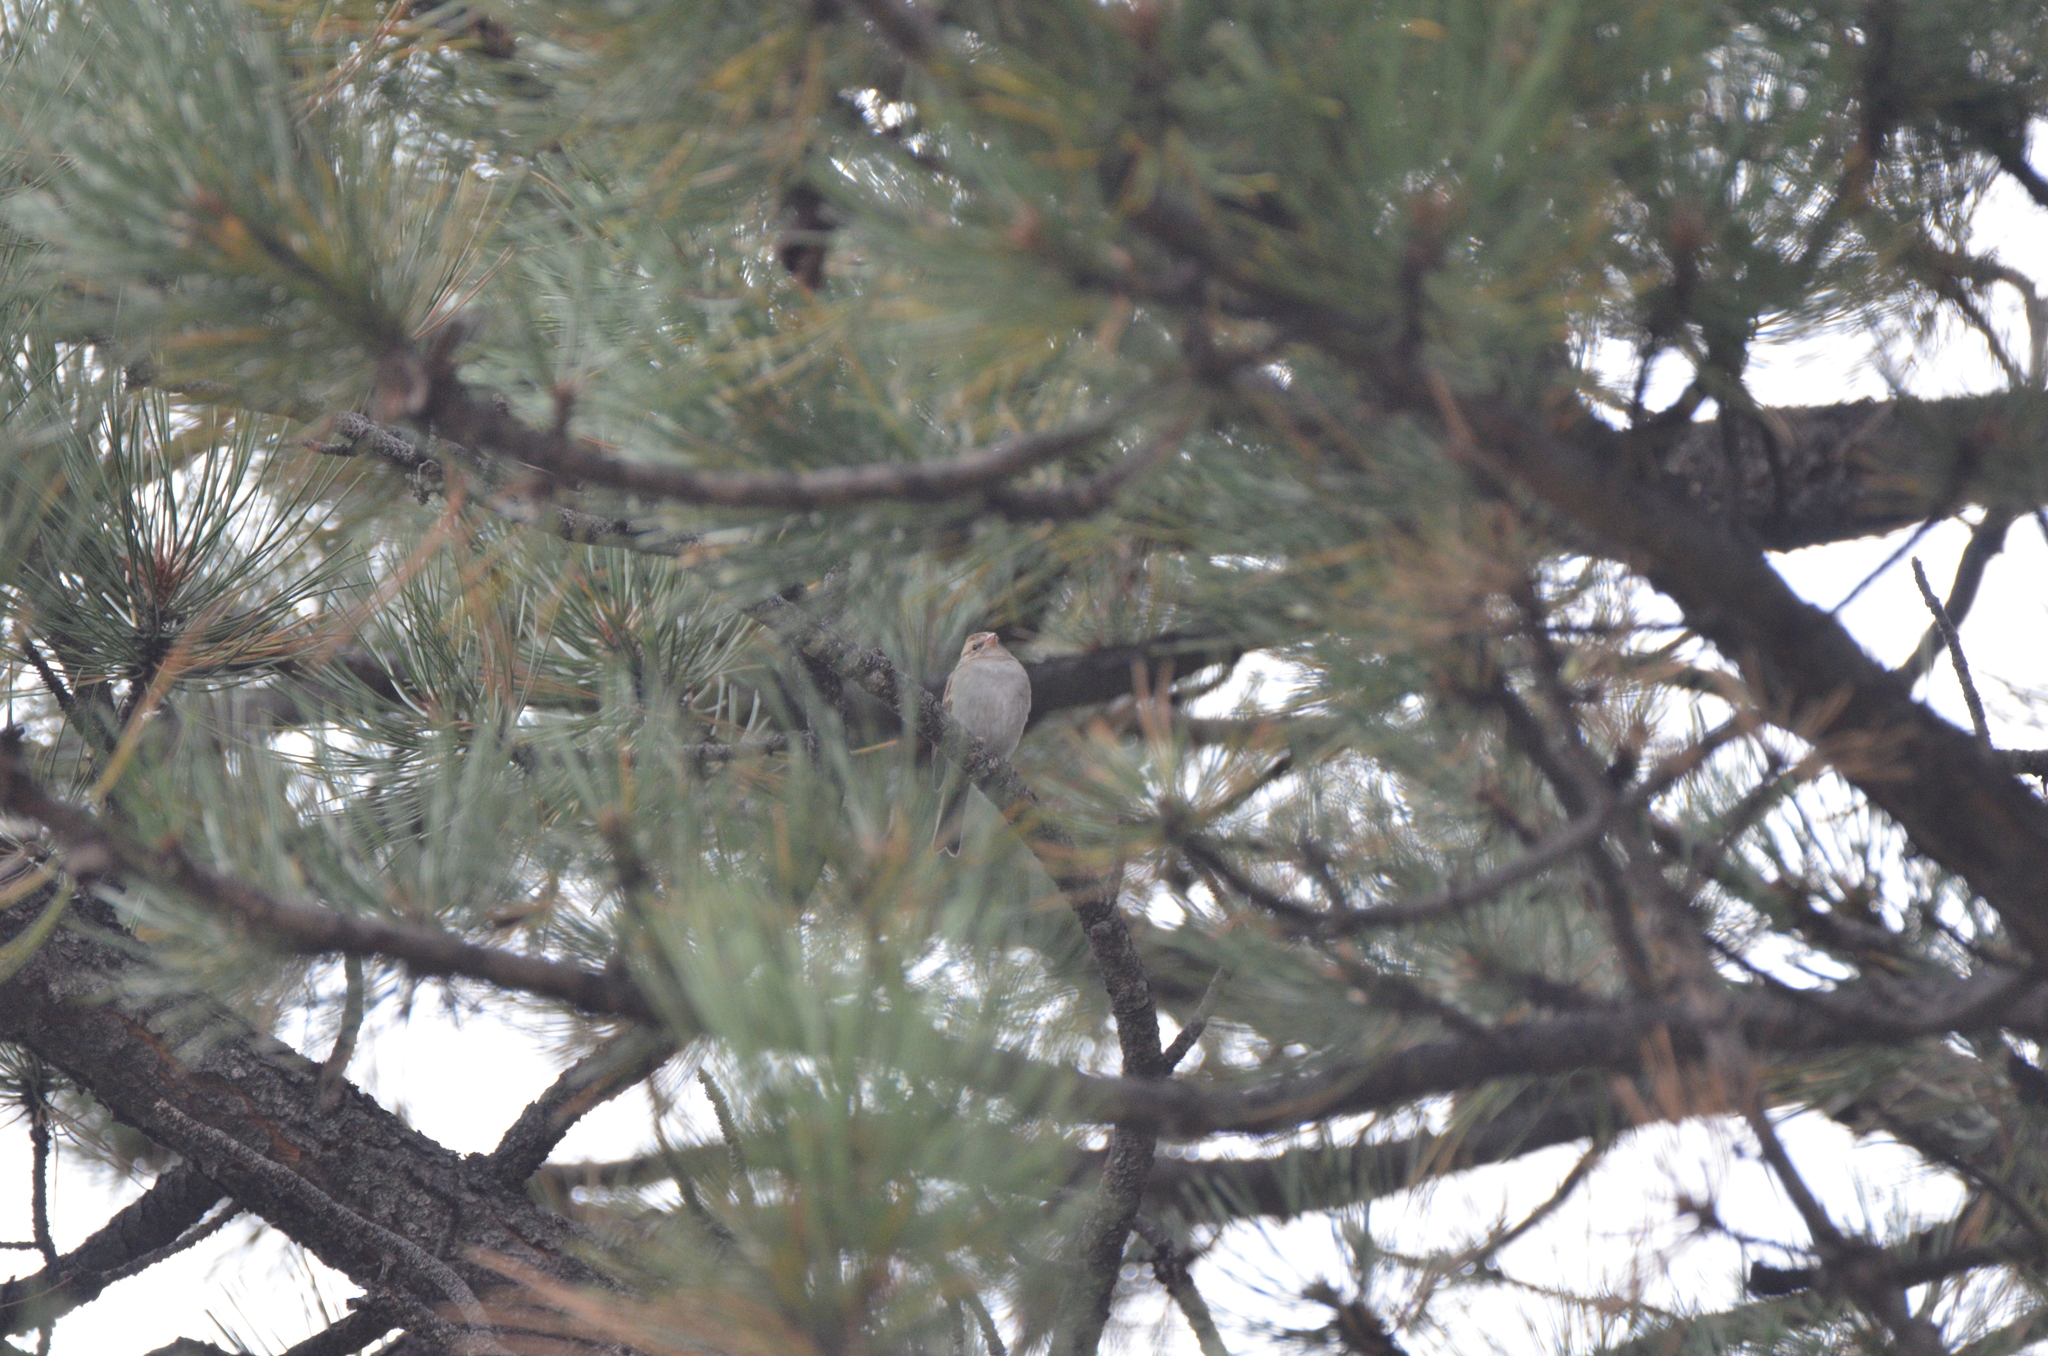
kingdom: Animalia
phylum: Chordata
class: Aves
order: Passeriformes
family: Passerellidae
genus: Spizella
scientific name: Spizella passerina
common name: Chipping sparrow
